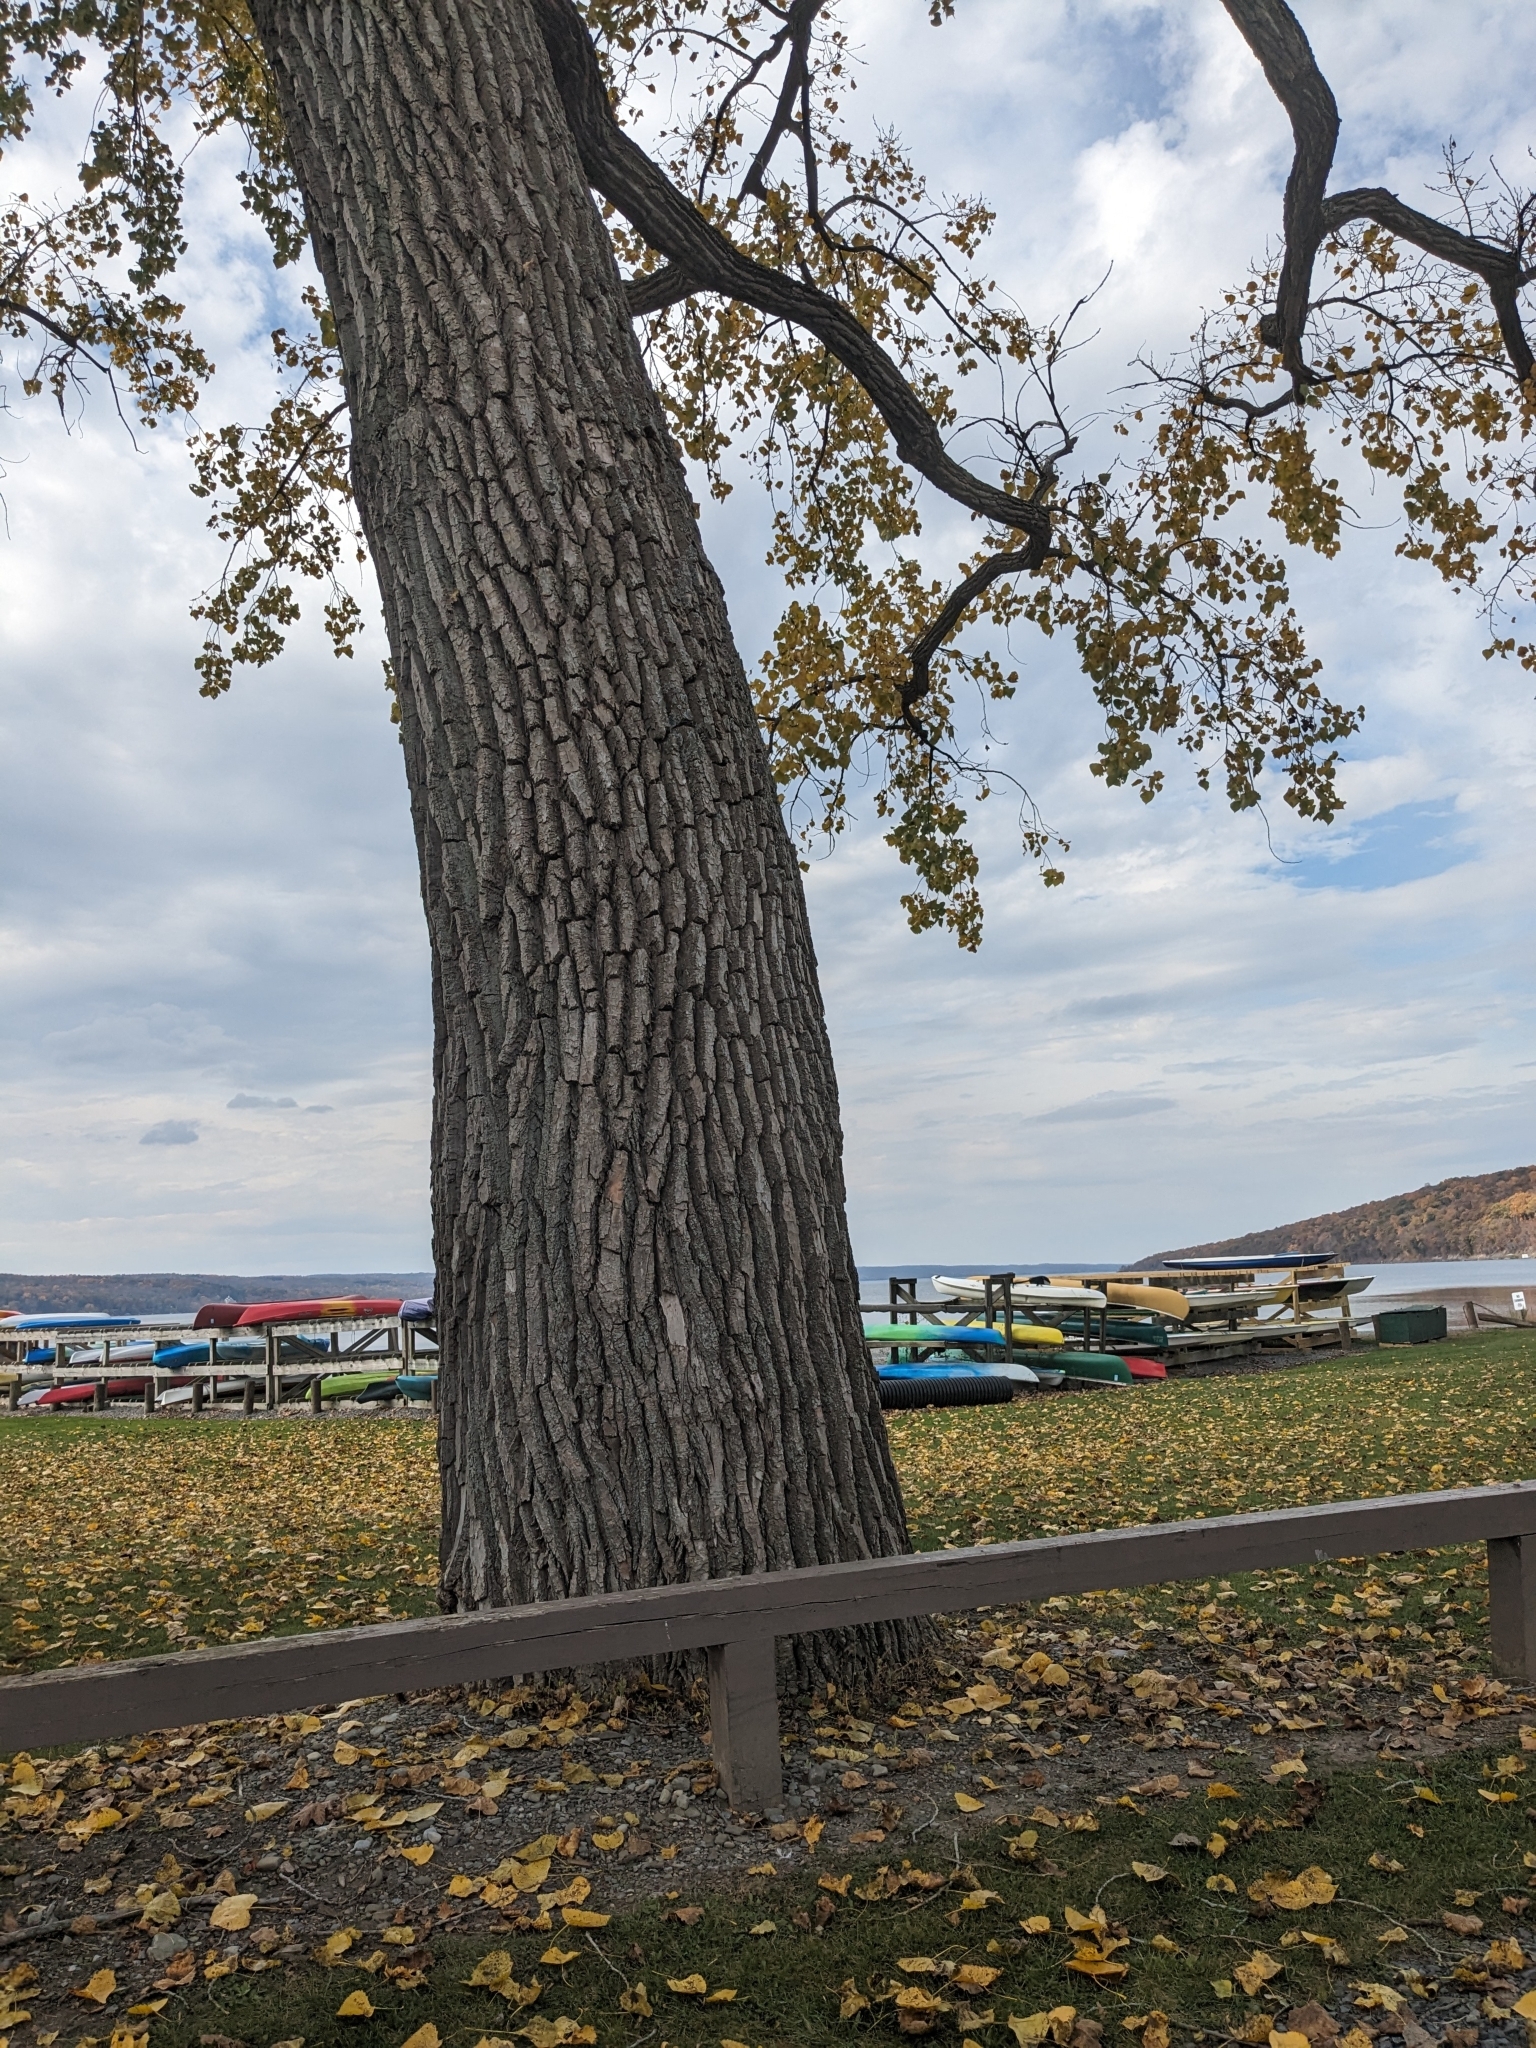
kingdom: Plantae
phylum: Tracheophyta
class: Magnoliopsida
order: Malpighiales
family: Salicaceae
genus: Populus
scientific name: Populus deltoides
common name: Eastern cottonwood
